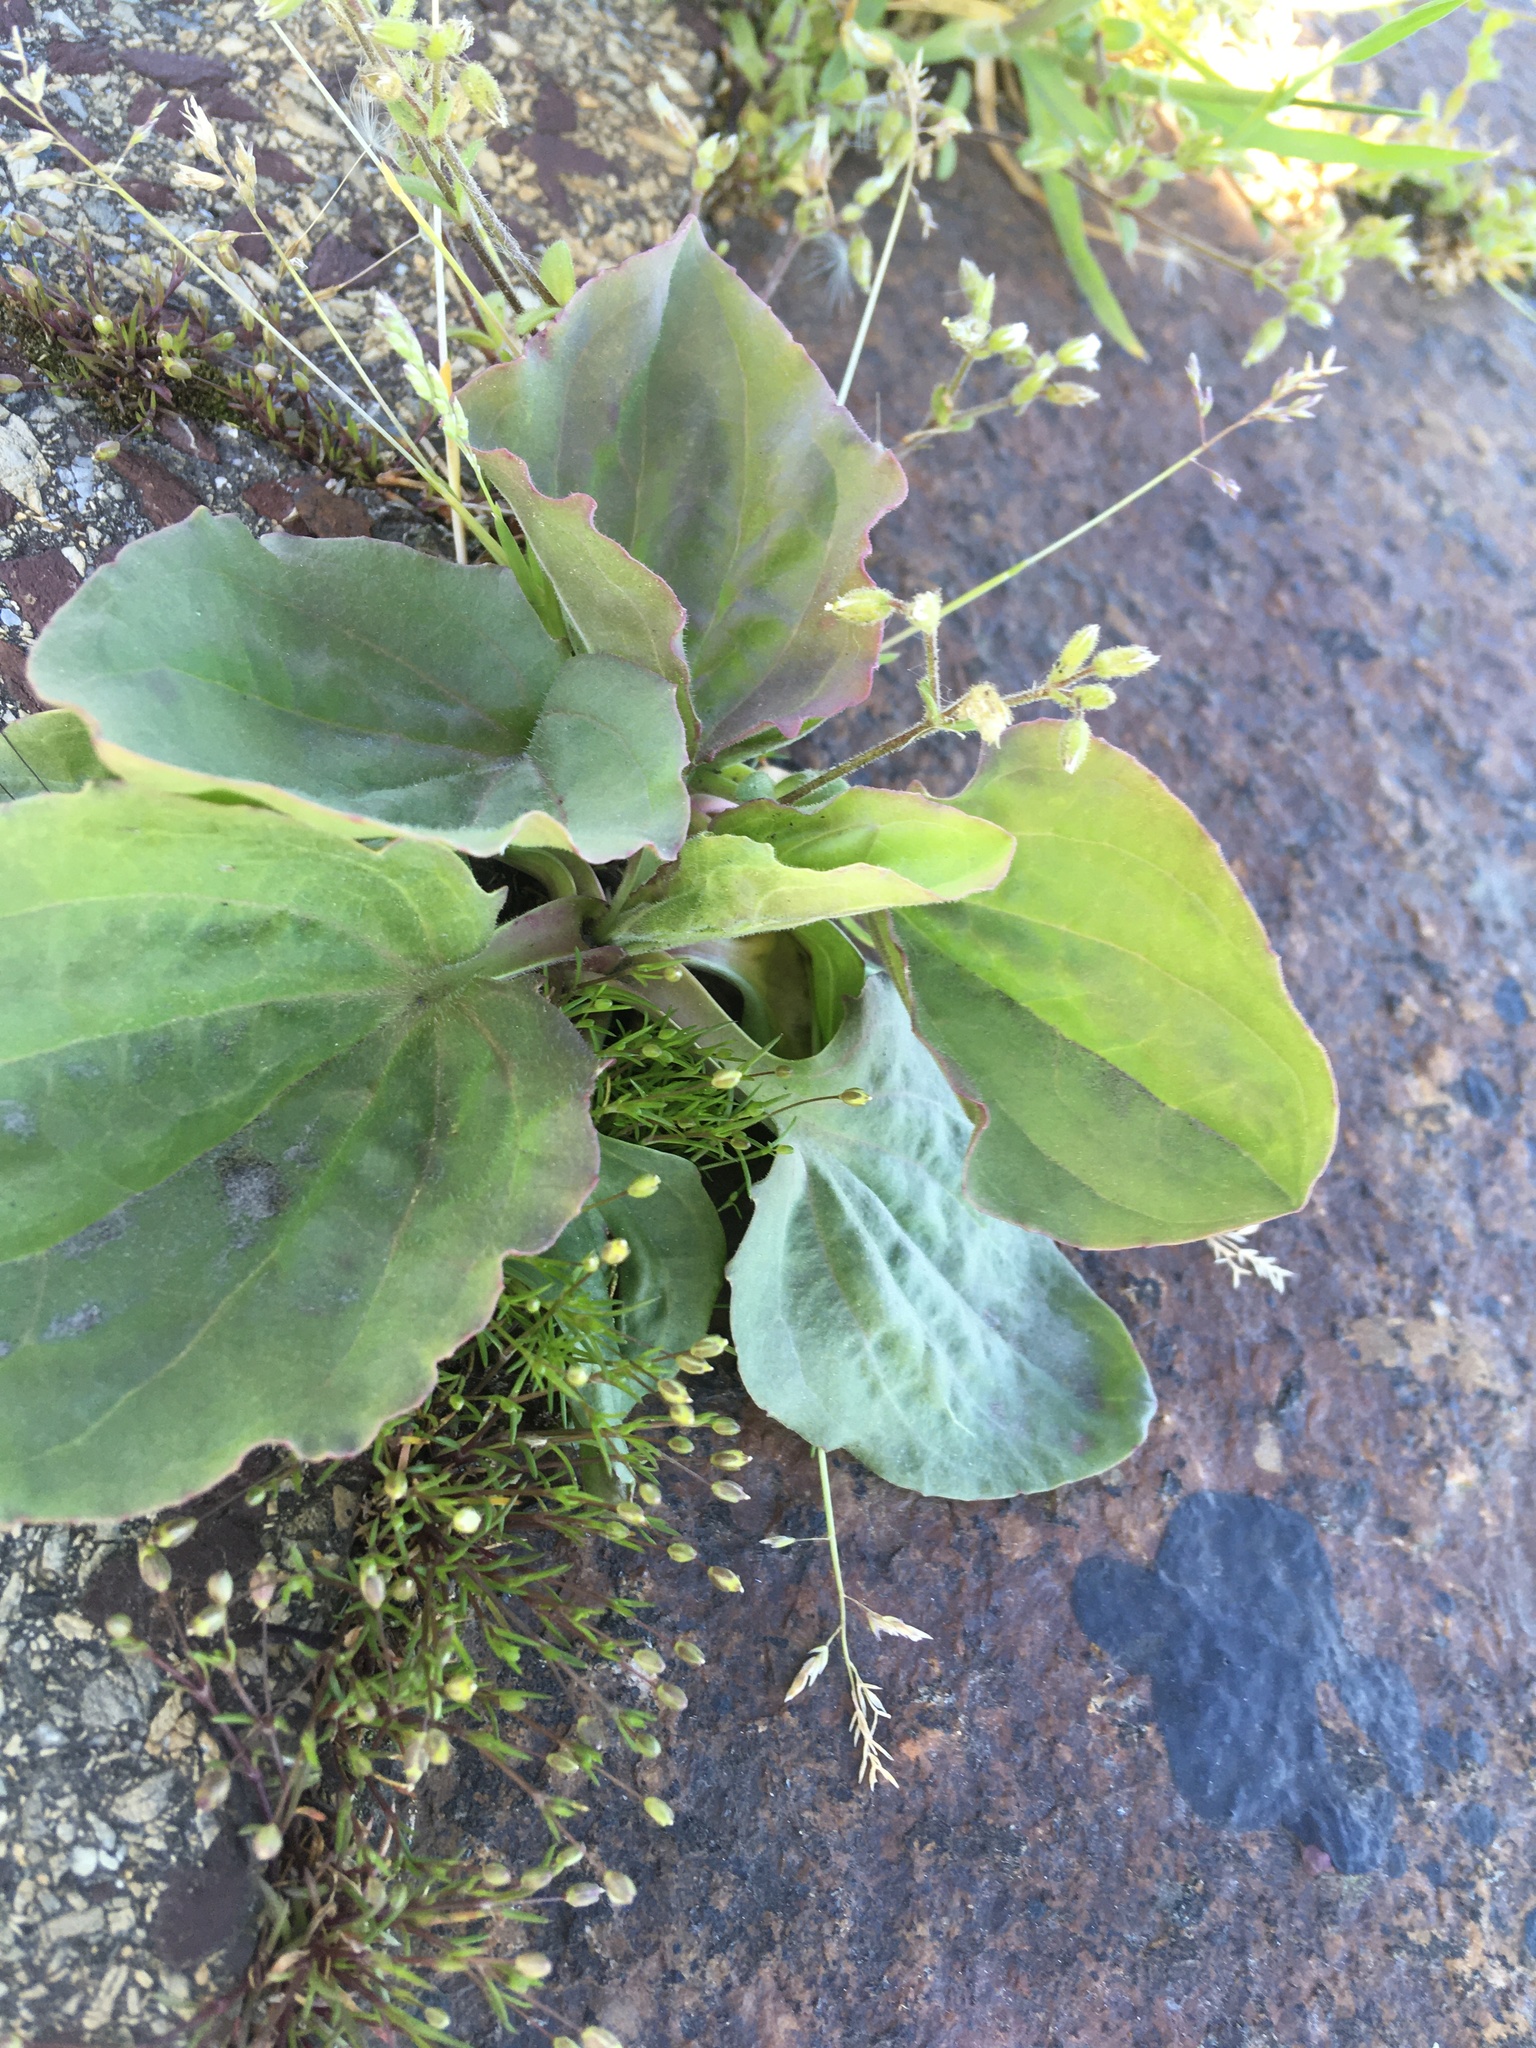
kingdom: Plantae
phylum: Tracheophyta
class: Magnoliopsida
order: Lamiales
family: Plantaginaceae
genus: Plantago
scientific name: Plantago major
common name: Common plantain
